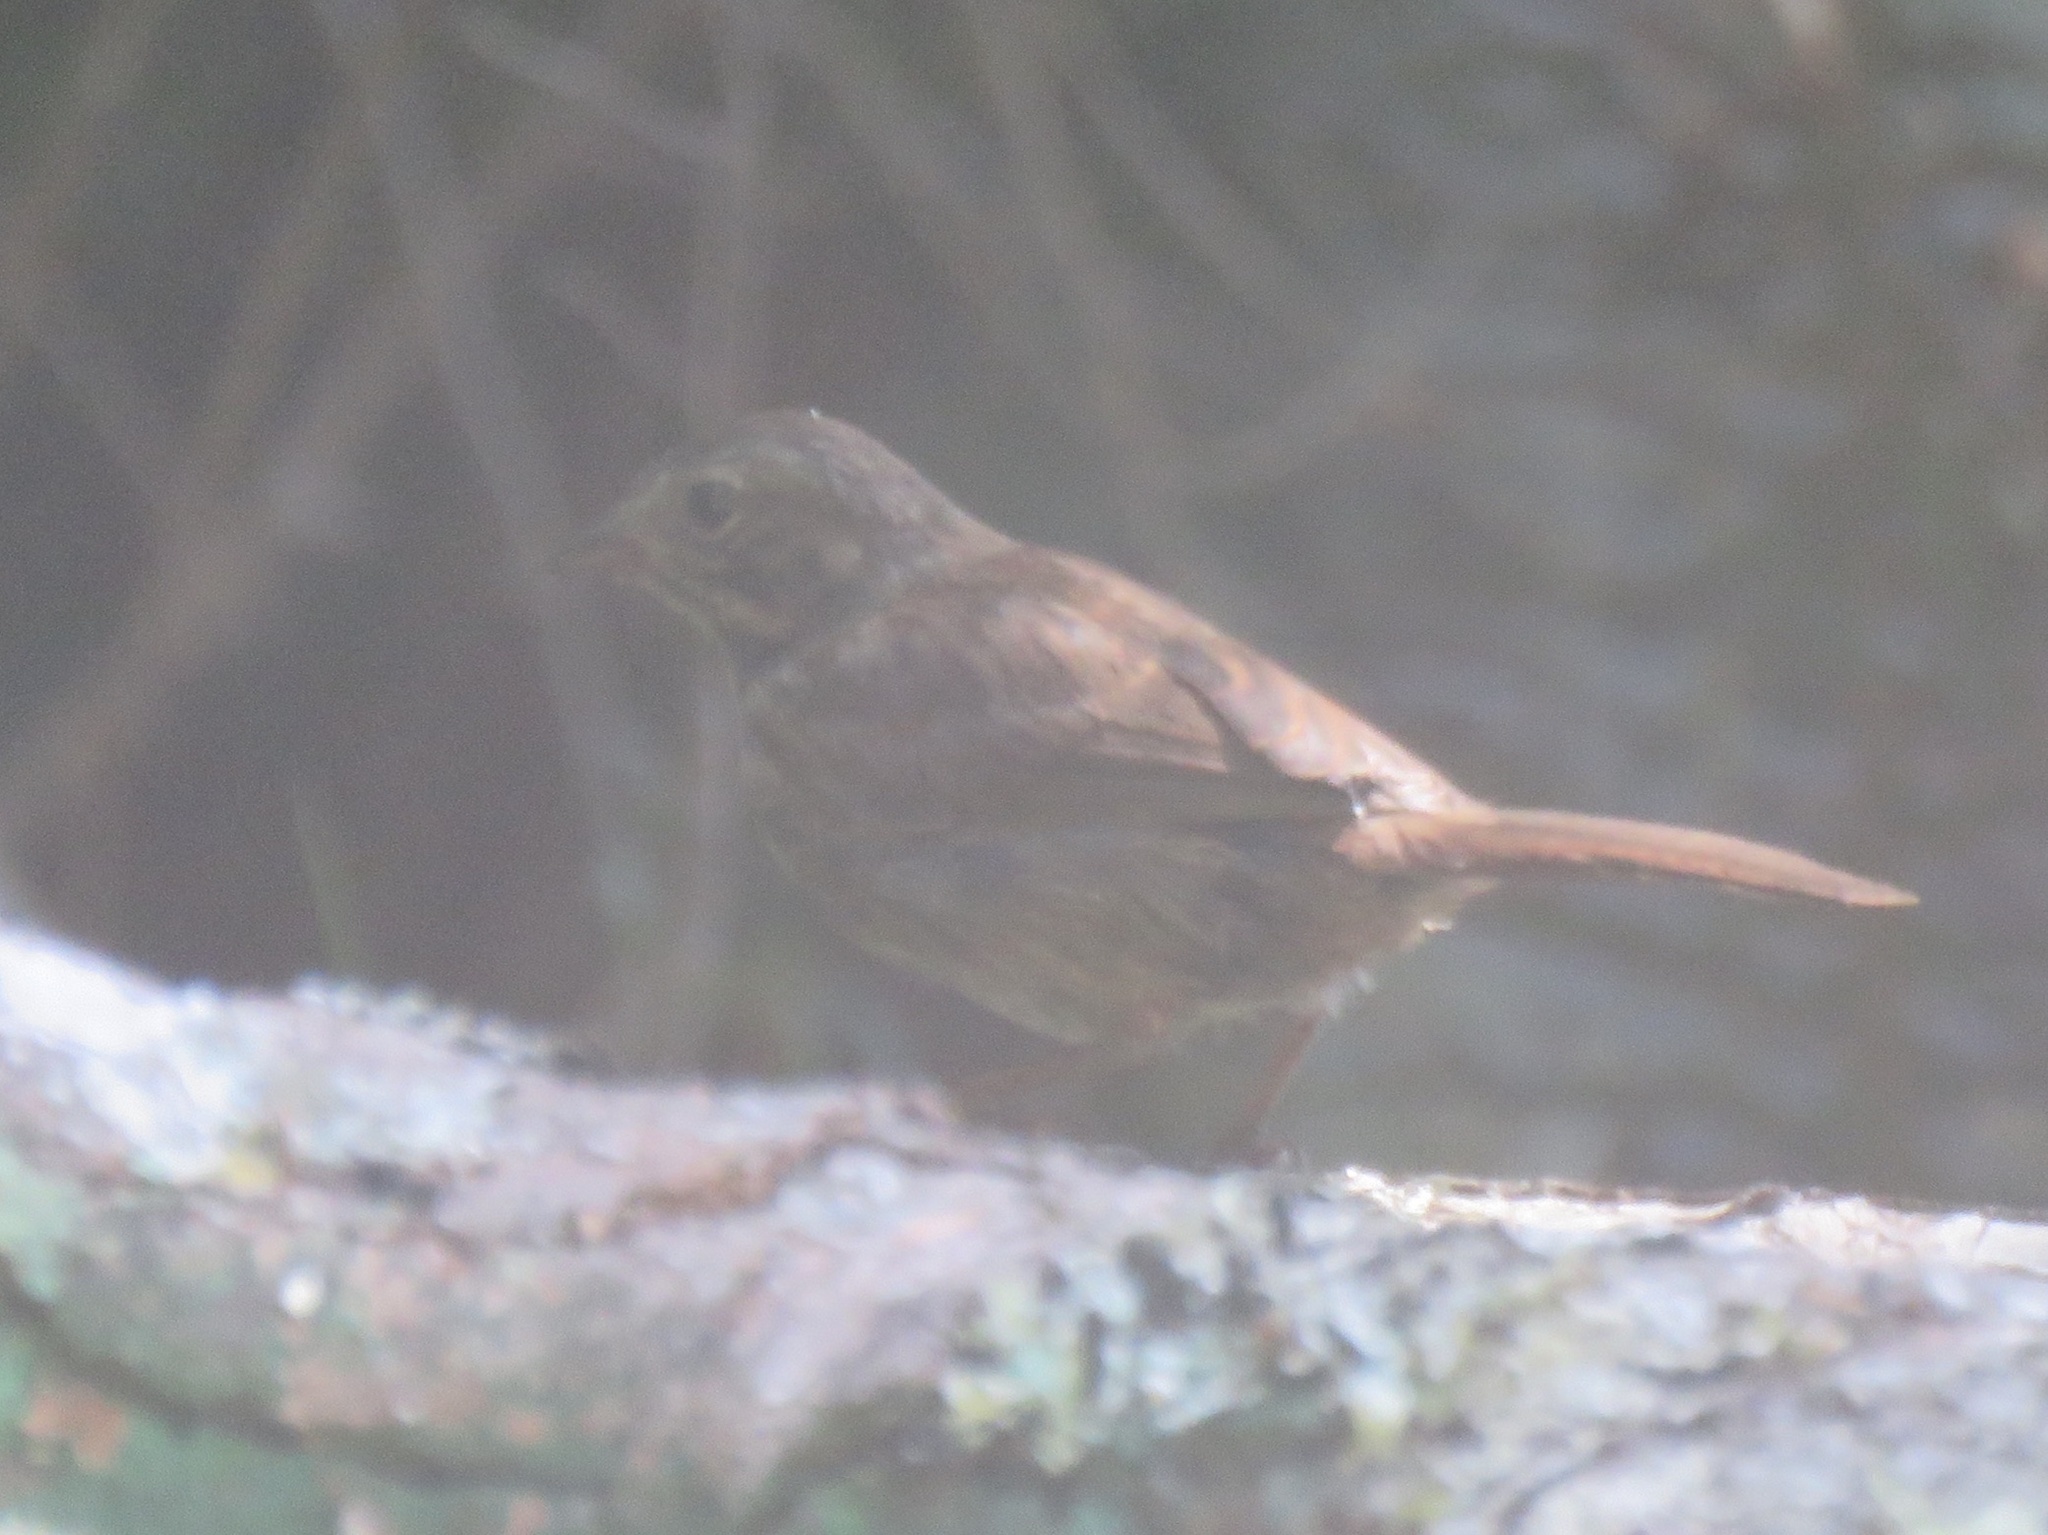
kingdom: Animalia
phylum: Chordata
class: Aves
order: Passeriformes
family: Passerellidae
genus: Melospiza
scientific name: Melospiza melodia
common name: Song sparrow
